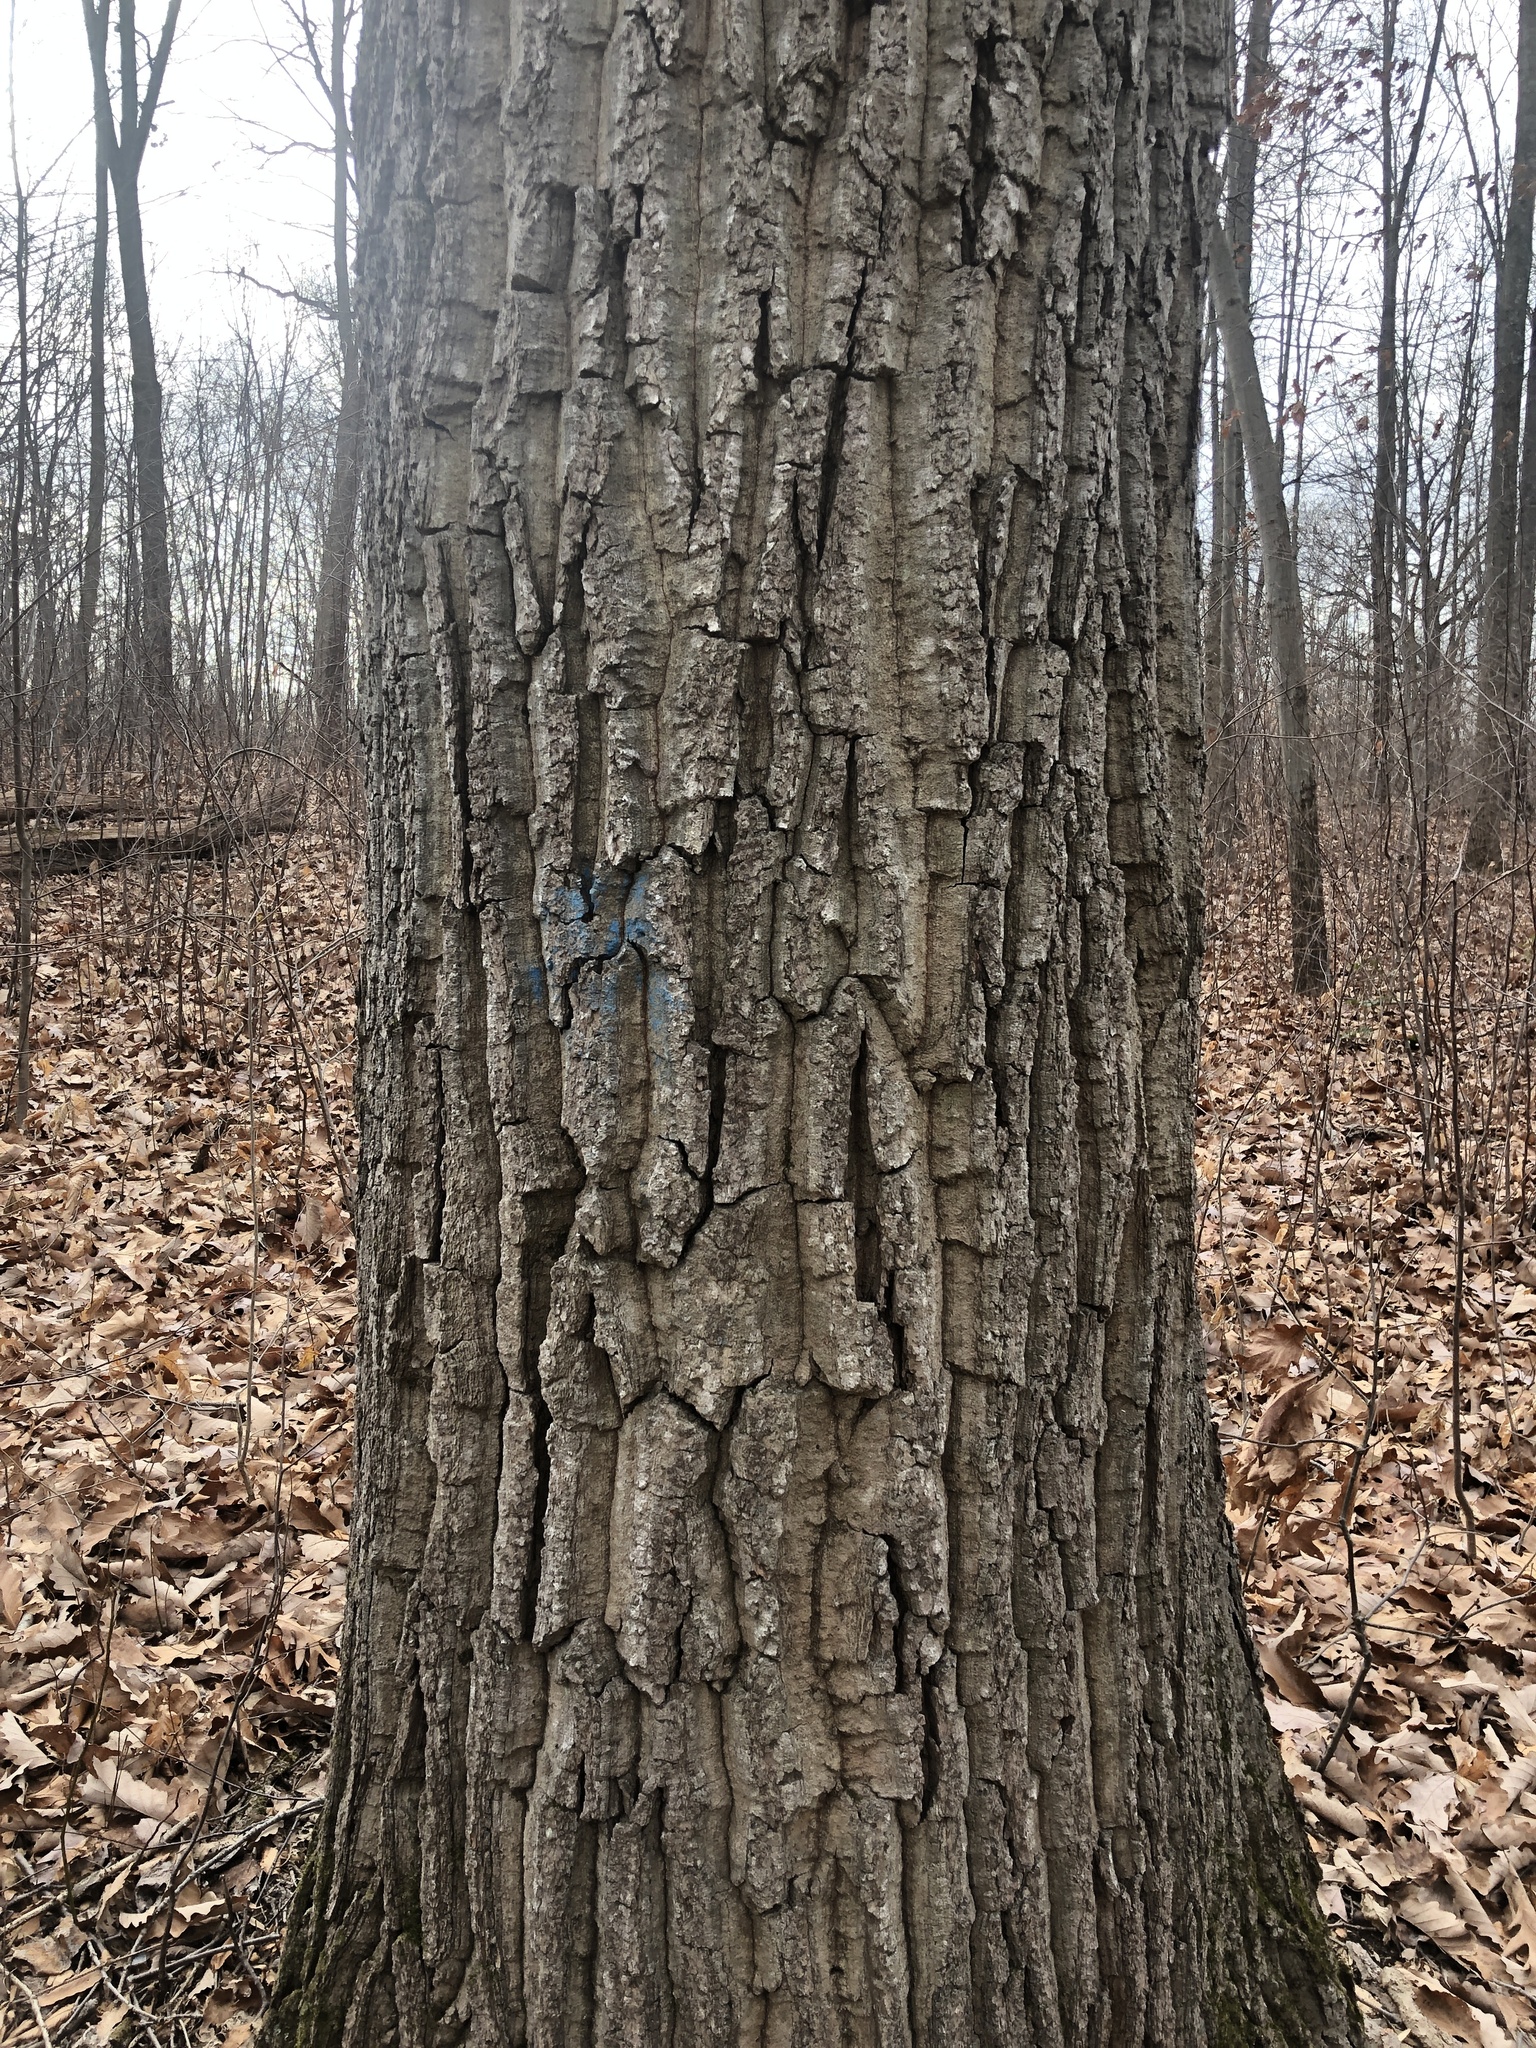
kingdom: Plantae
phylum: Tracheophyta
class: Magnoliopsida
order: Fagales
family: Fagaceae
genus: Quercus
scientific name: Quercus montana
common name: Chestnut oak
